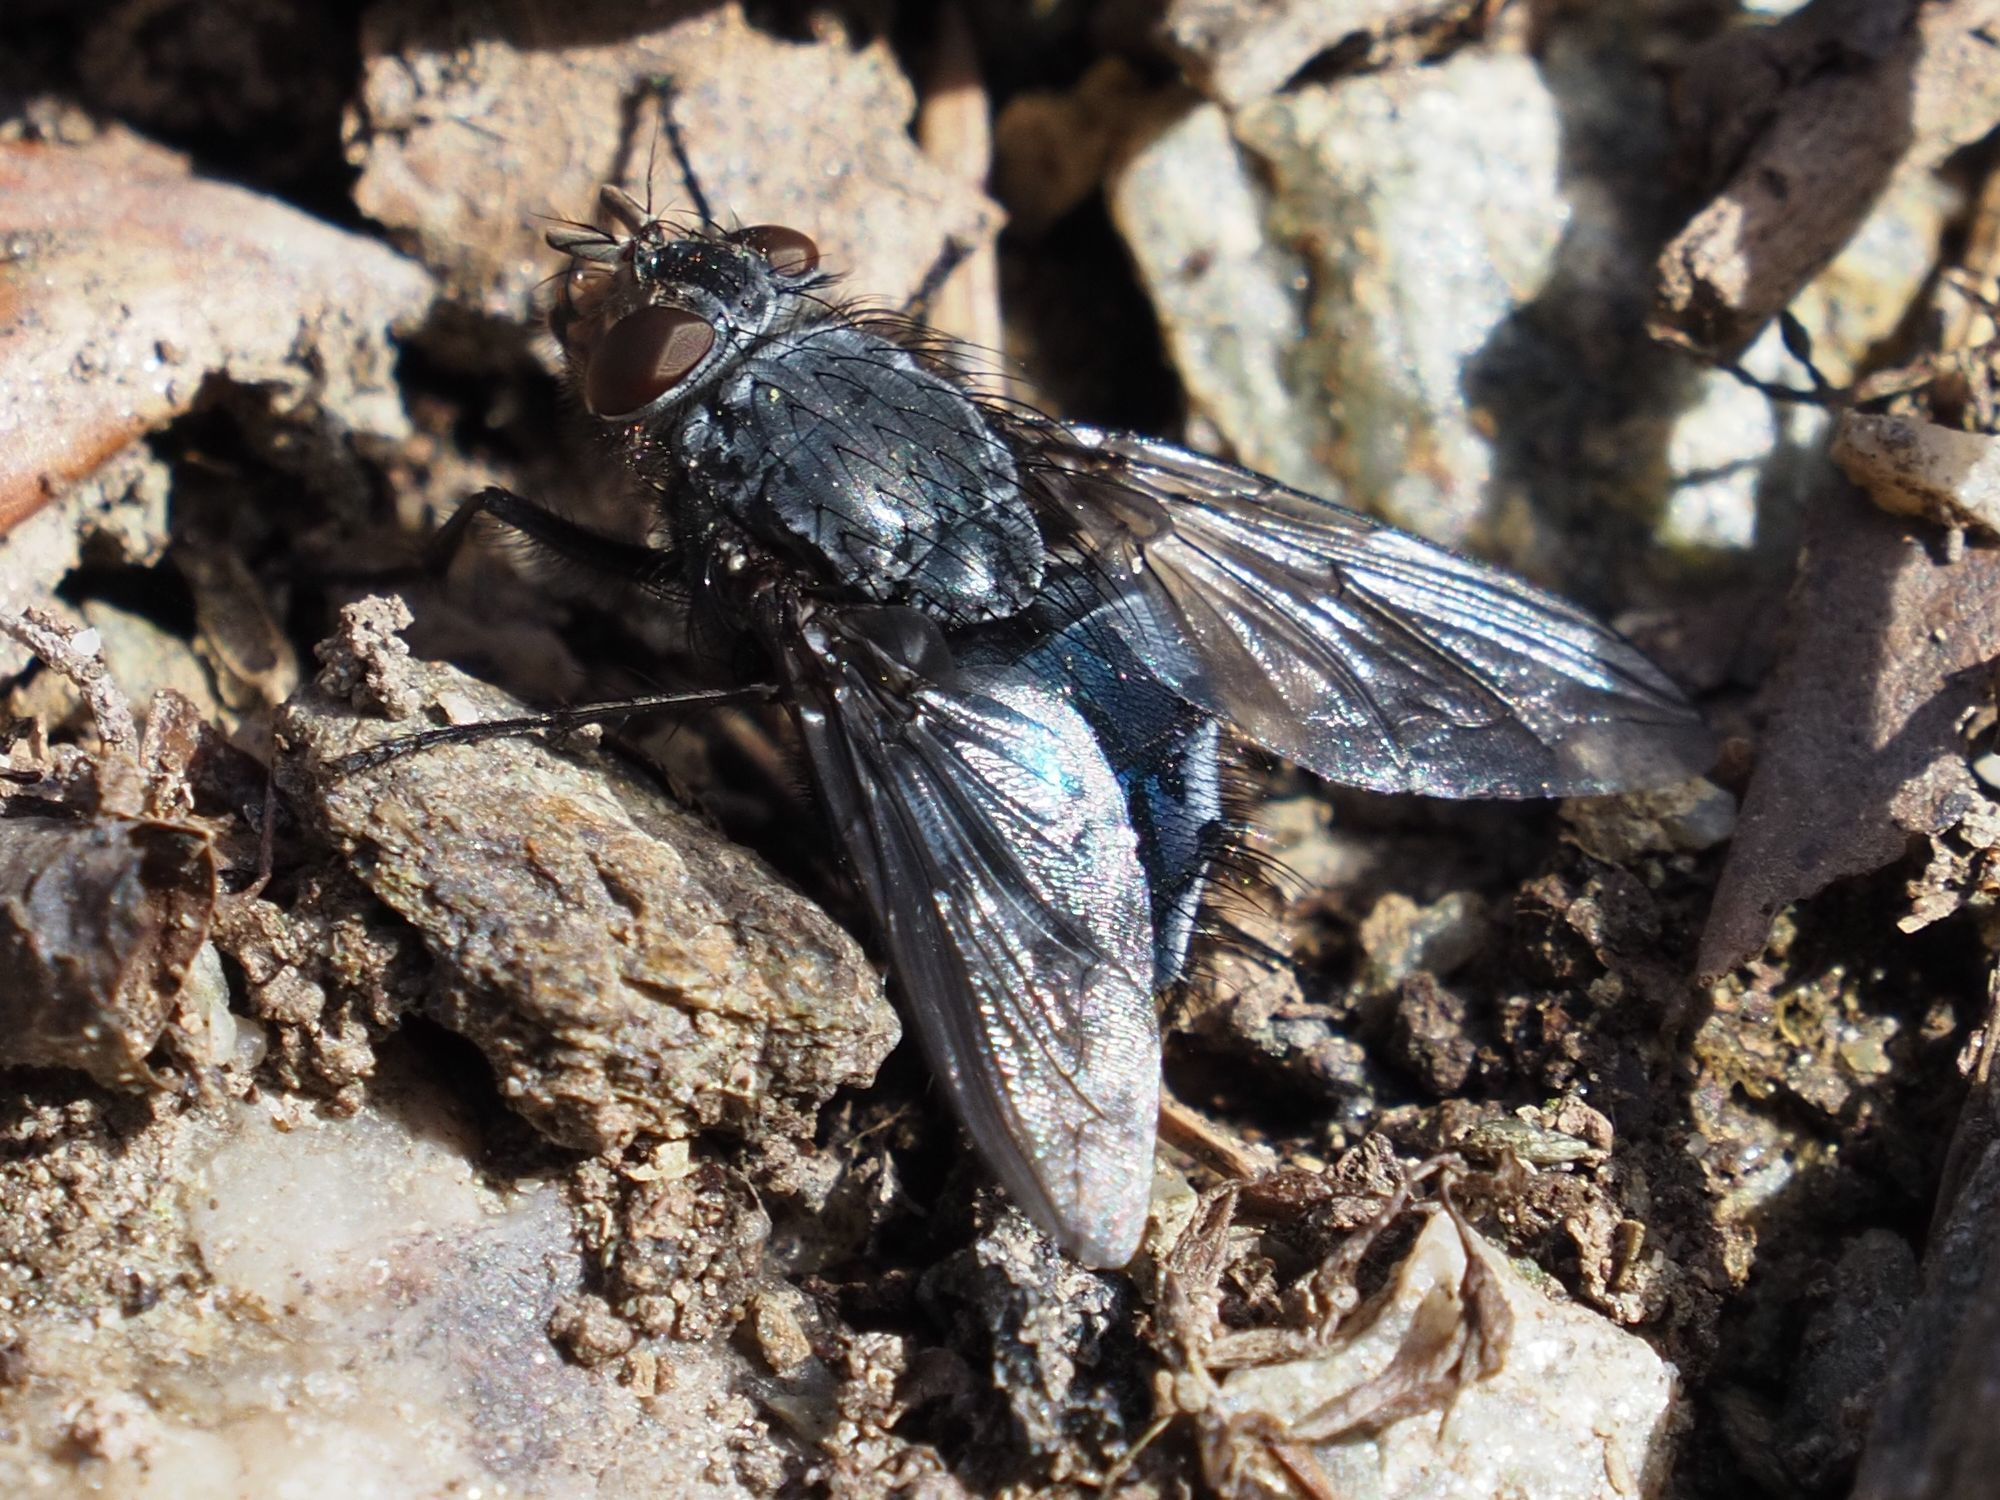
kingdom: Animalia
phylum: Arthropoda
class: Insecta
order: Diptera
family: Calliphoridae
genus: Calliphora
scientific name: Calliphora vicina
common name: Common blow flie
